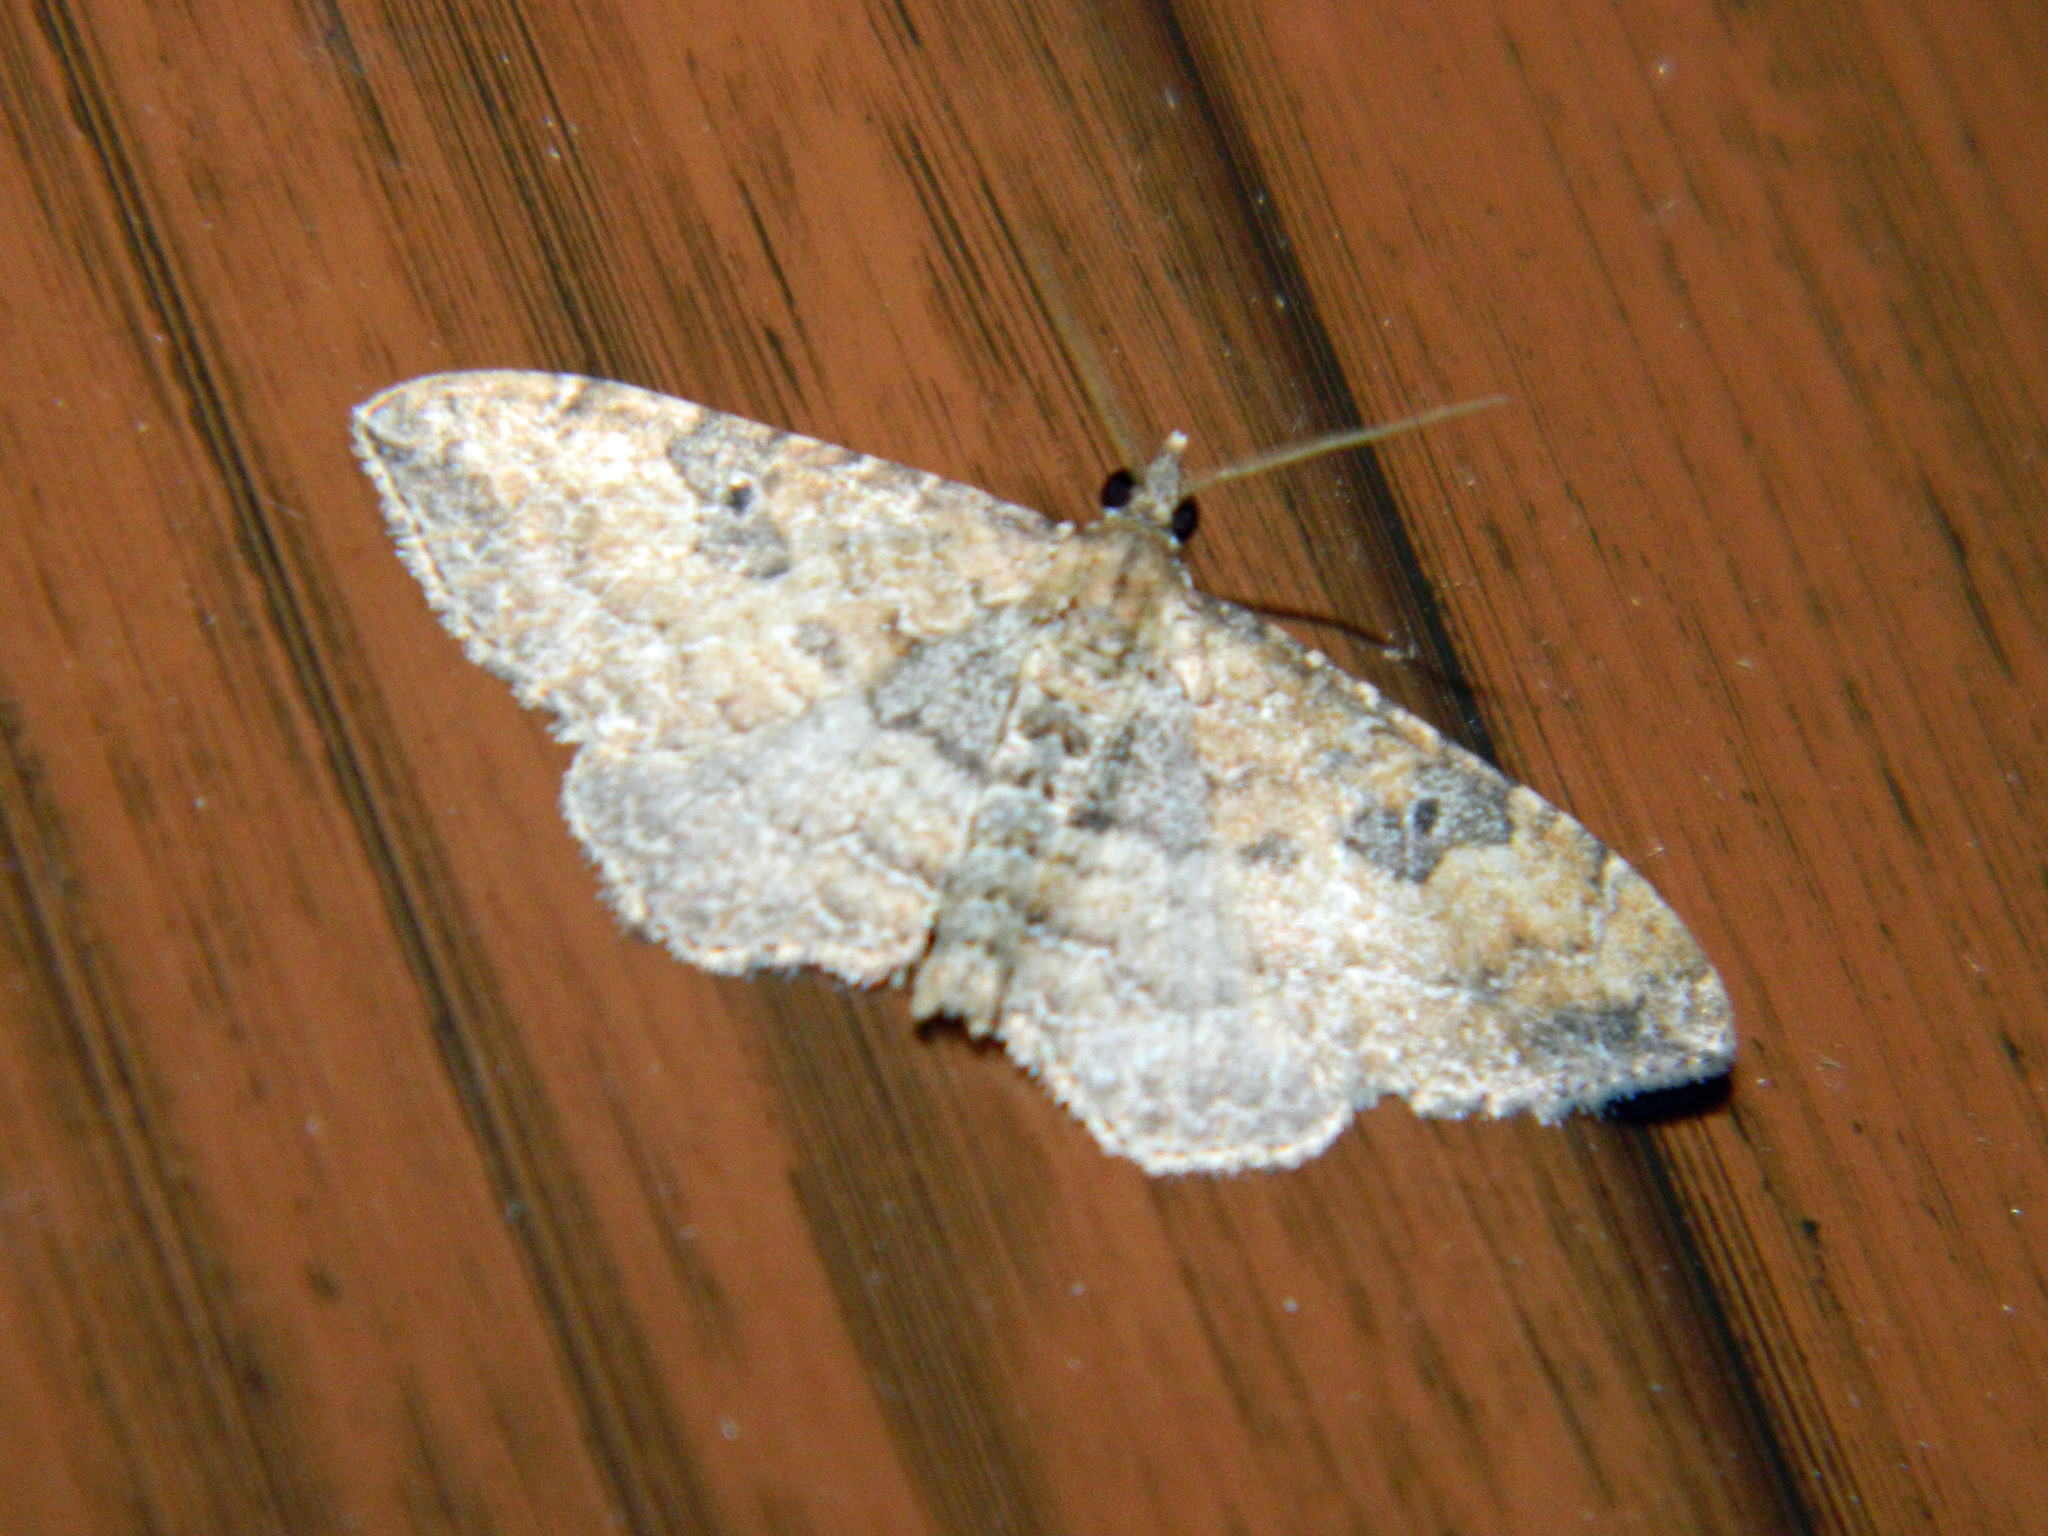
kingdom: Animalia
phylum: Arthropoda
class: Insecta
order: Lepidoptera
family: Geometridae
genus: Orthonama
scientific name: Orthonama obstipata
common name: The gem
